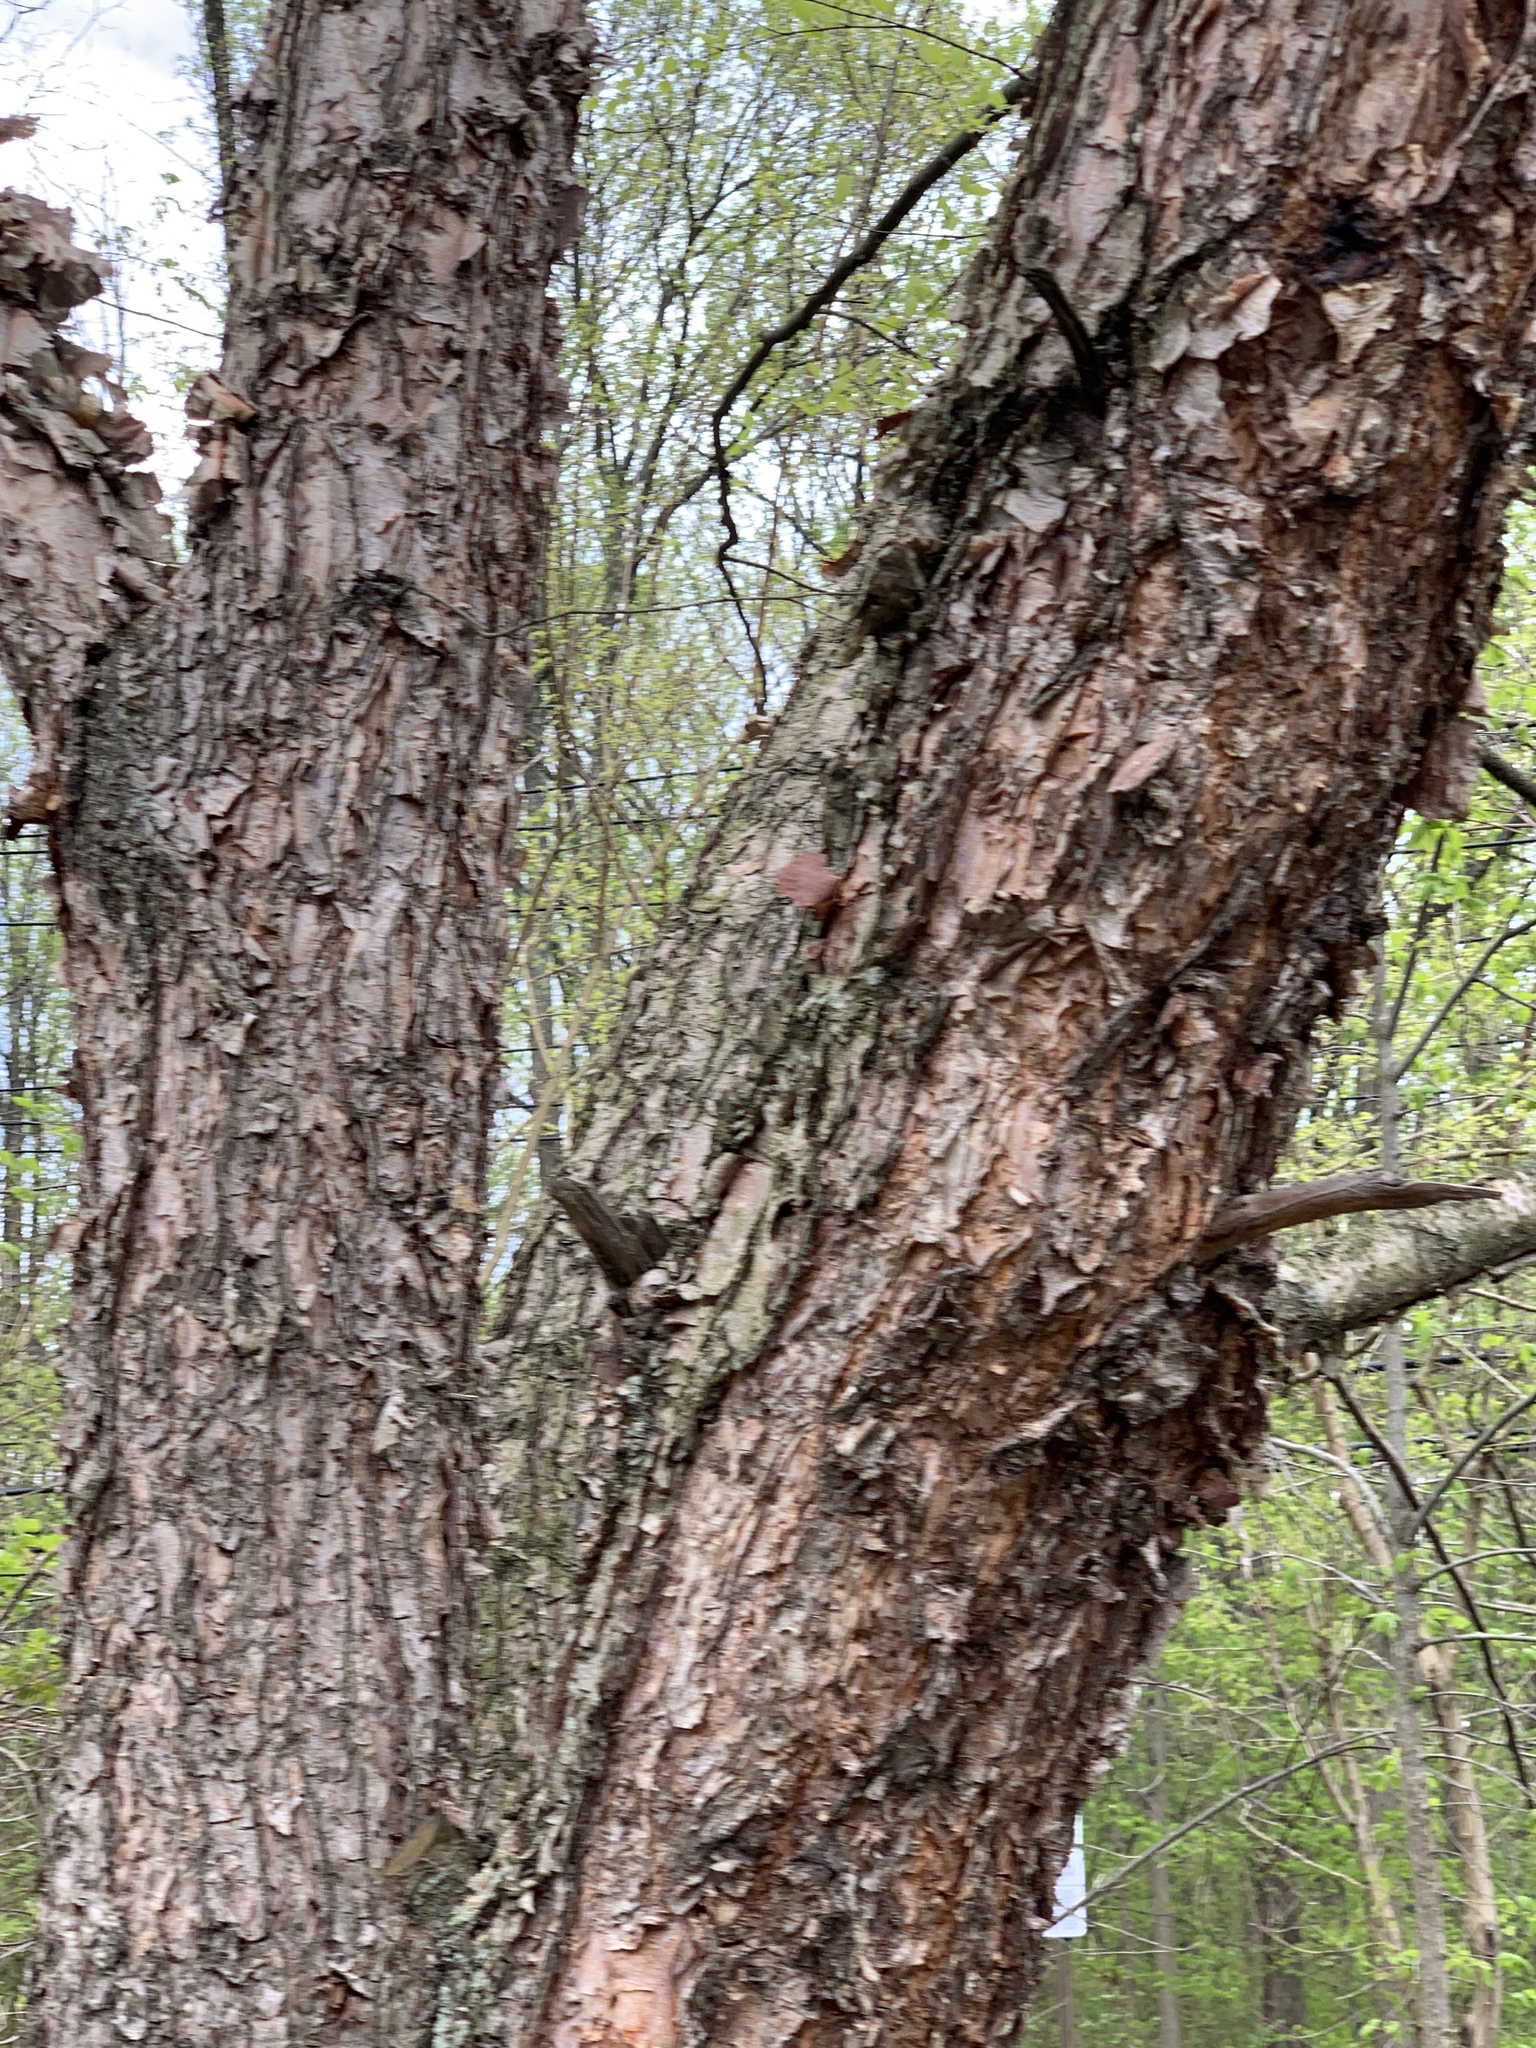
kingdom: Plantae
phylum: Tracheophyta
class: Magnoliopsida
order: Fagales
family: Betulaceae
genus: Betula
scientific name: Betula nigra
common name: Black birch
